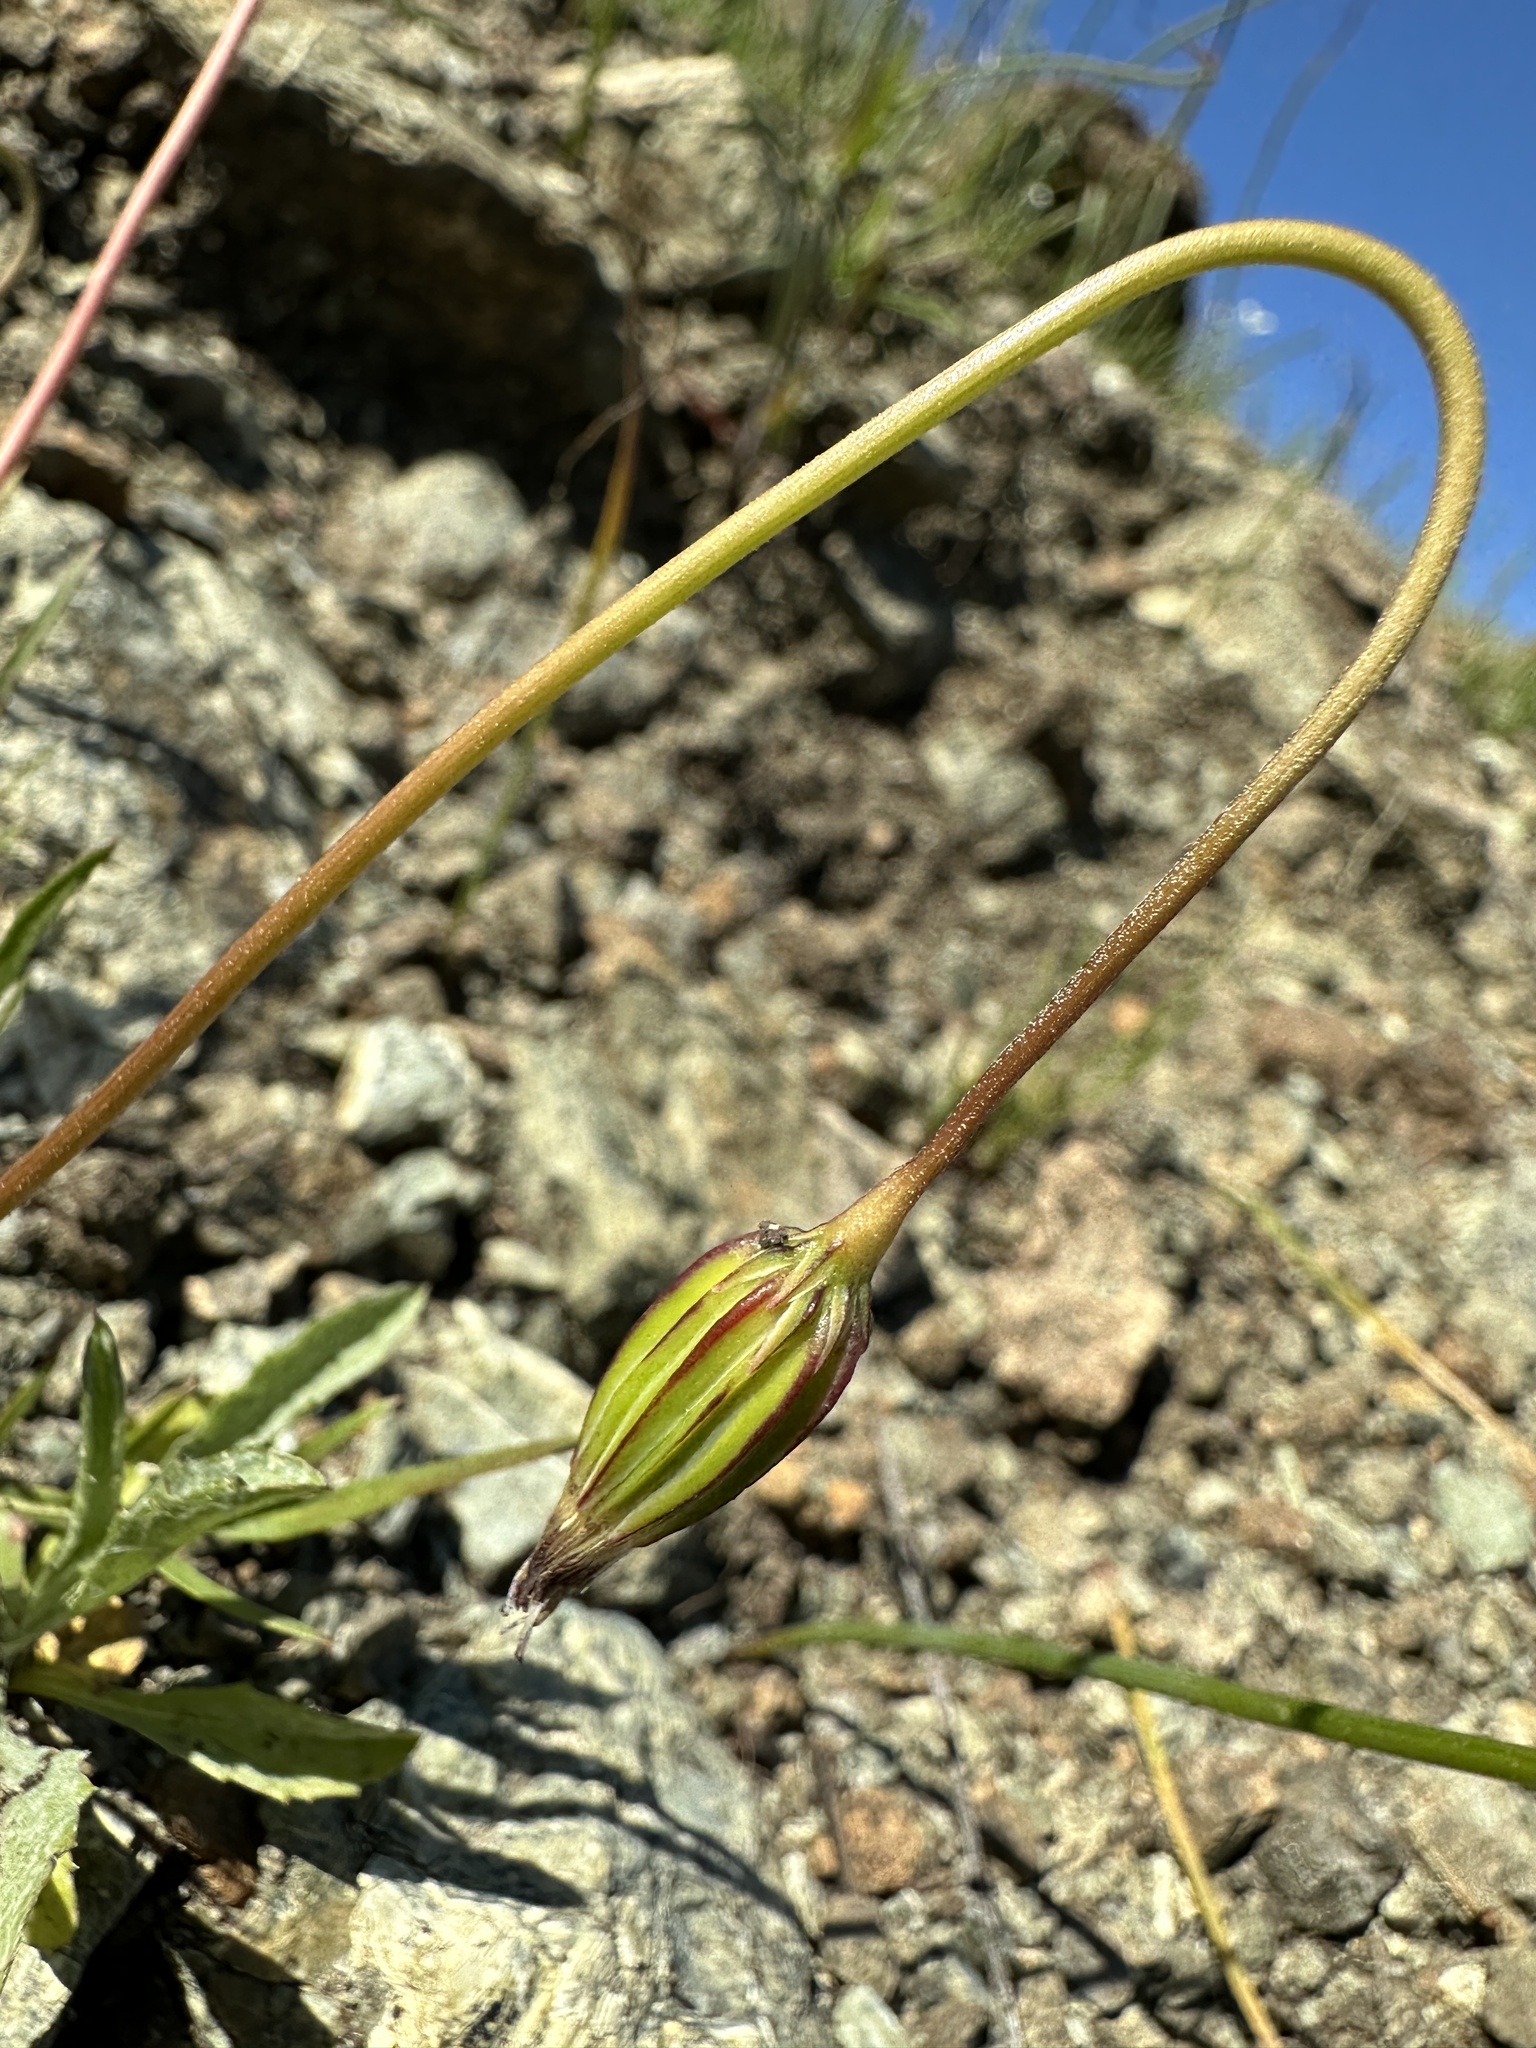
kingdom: Plantae
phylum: Tracheophyta
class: Magnoliopsida
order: Asterales
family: Asteraceae
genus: Microseris
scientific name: Microseris douglasii
